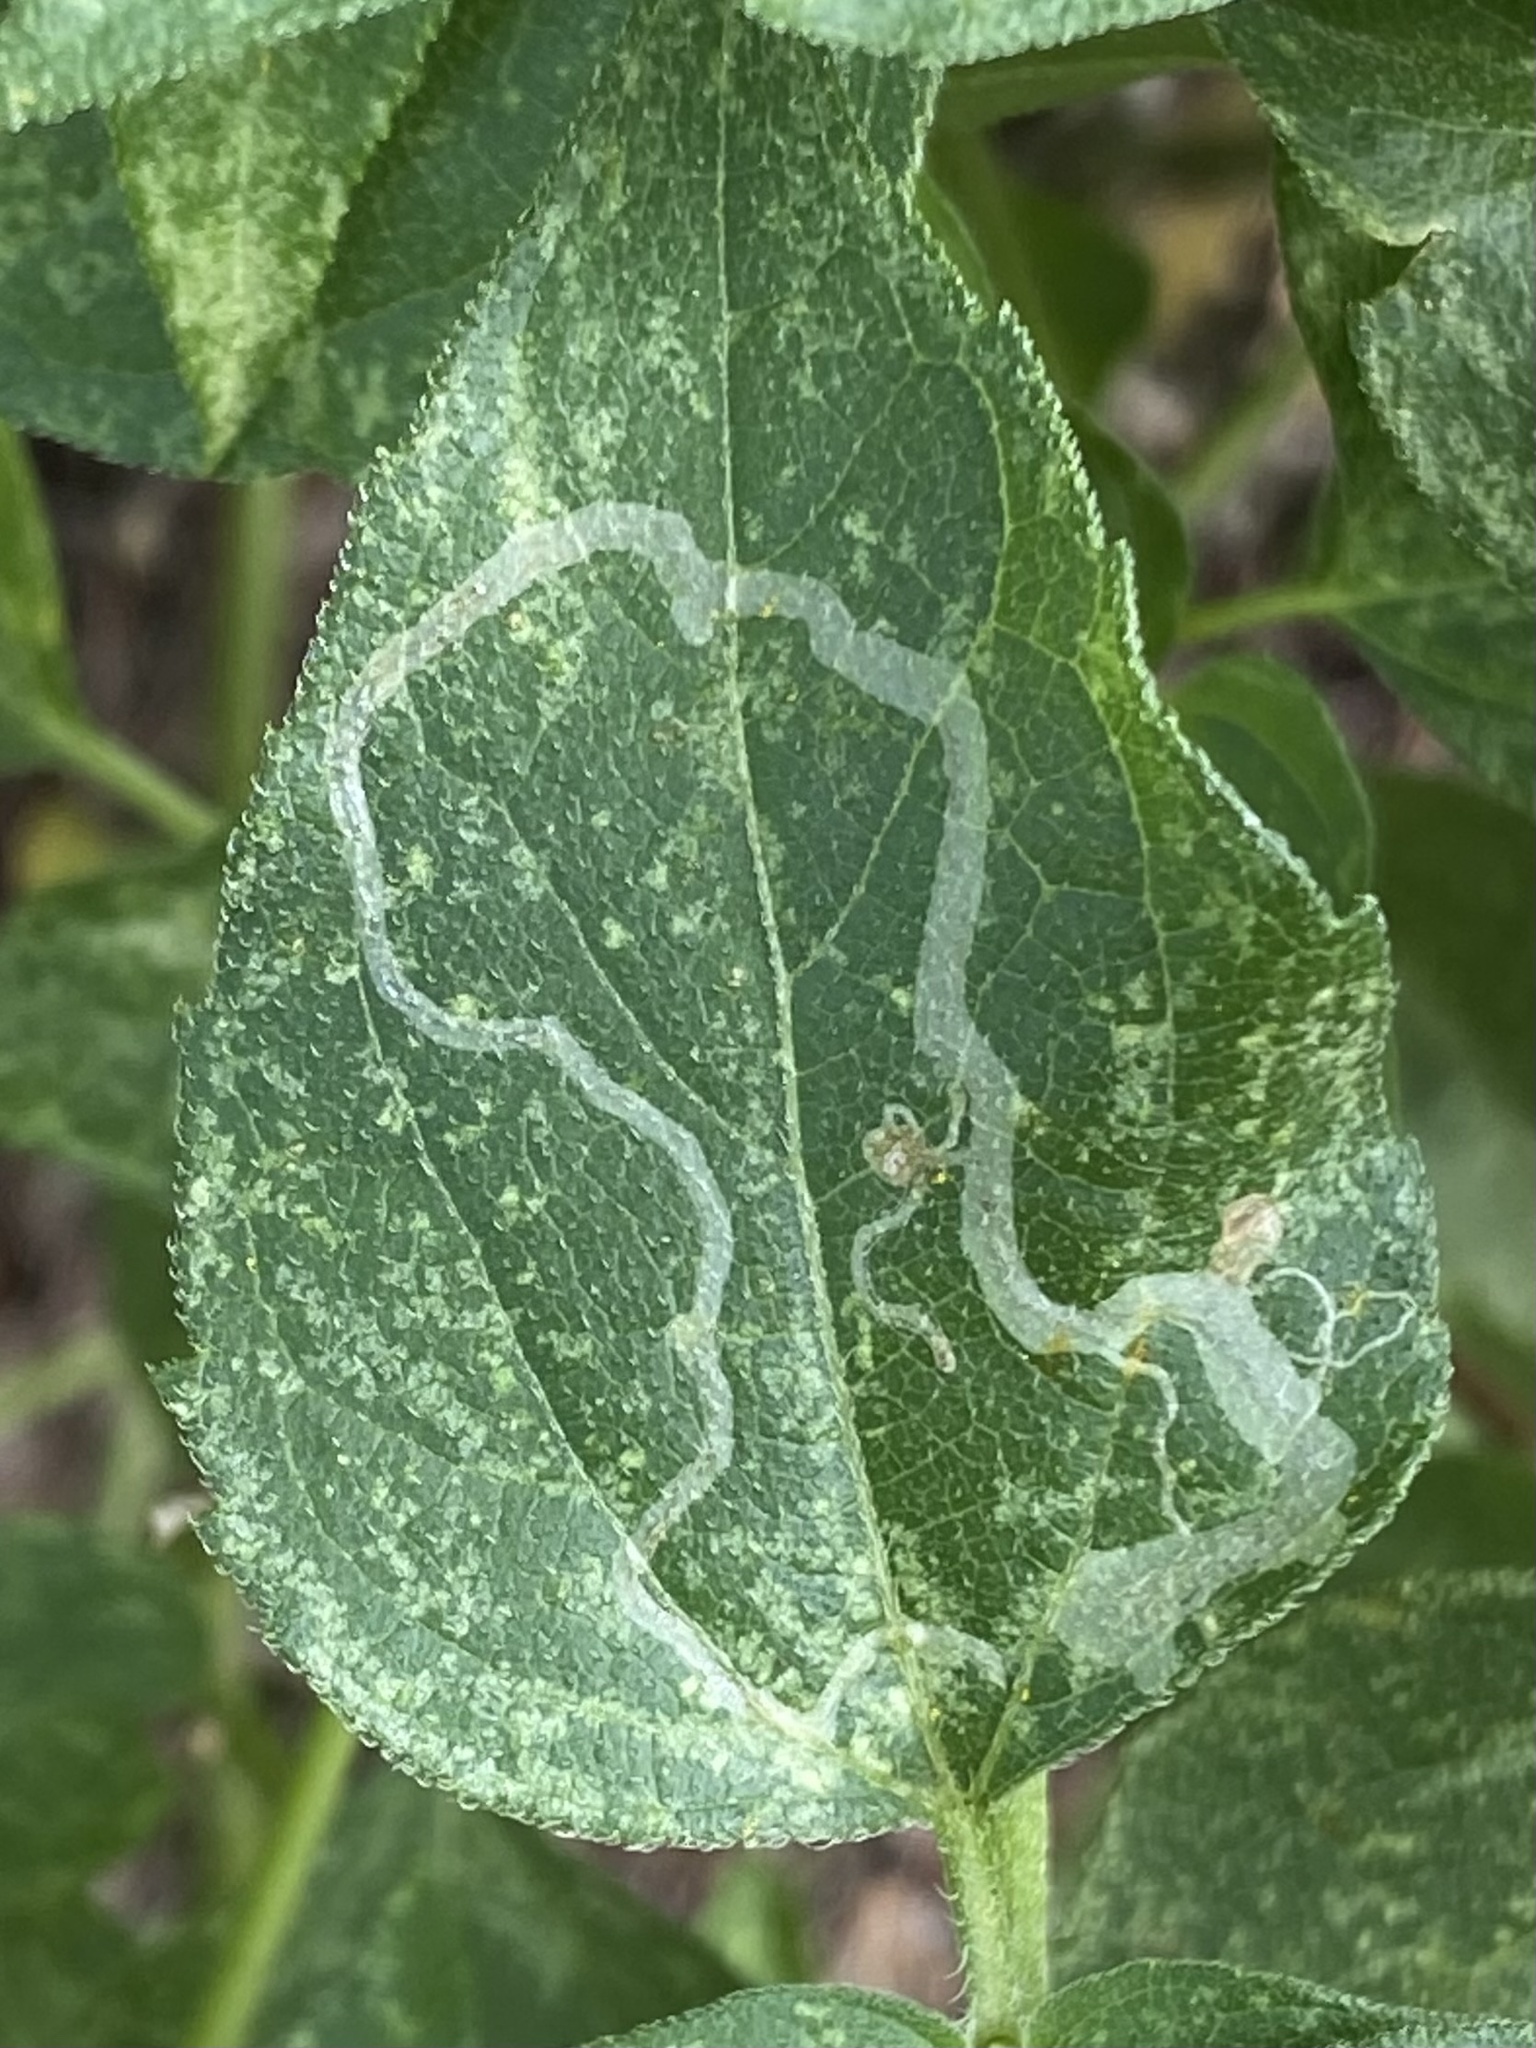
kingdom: Animalia
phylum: Arthropoda
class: Insecta
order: Diptera
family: Agromyzidae
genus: Liriomyza
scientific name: Liriomyza
